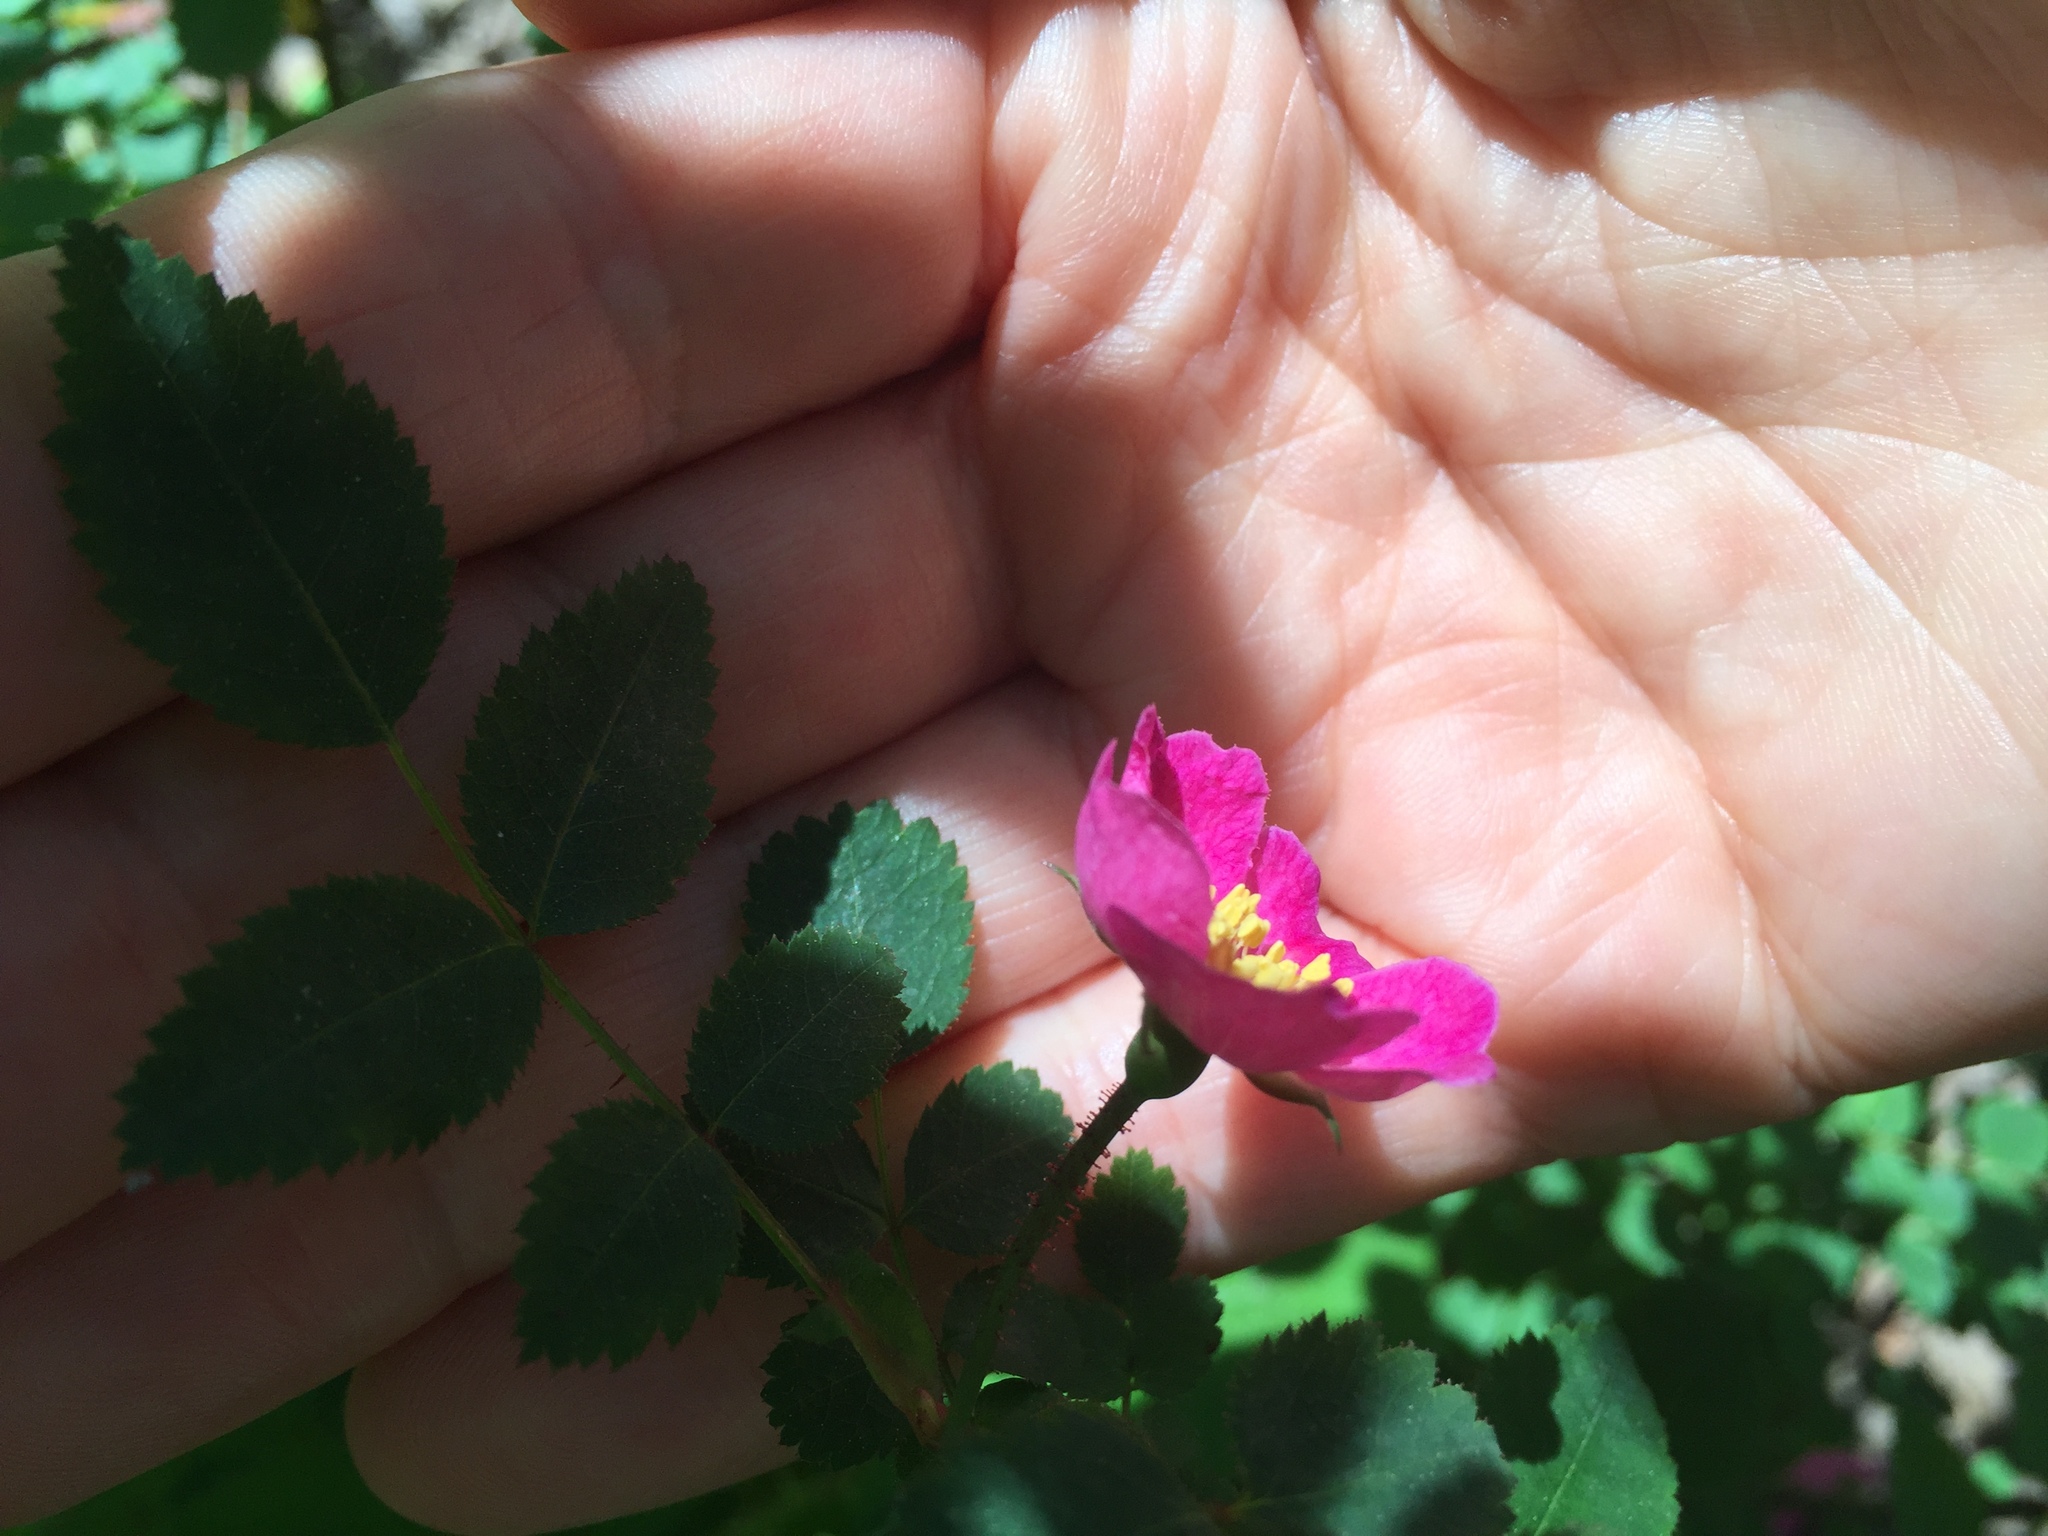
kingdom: Plantae
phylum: Tracheophyta
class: Magnoliopsida
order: Rosales
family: Rosaceae
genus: Rosa
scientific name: Rosa gymnocarpa
